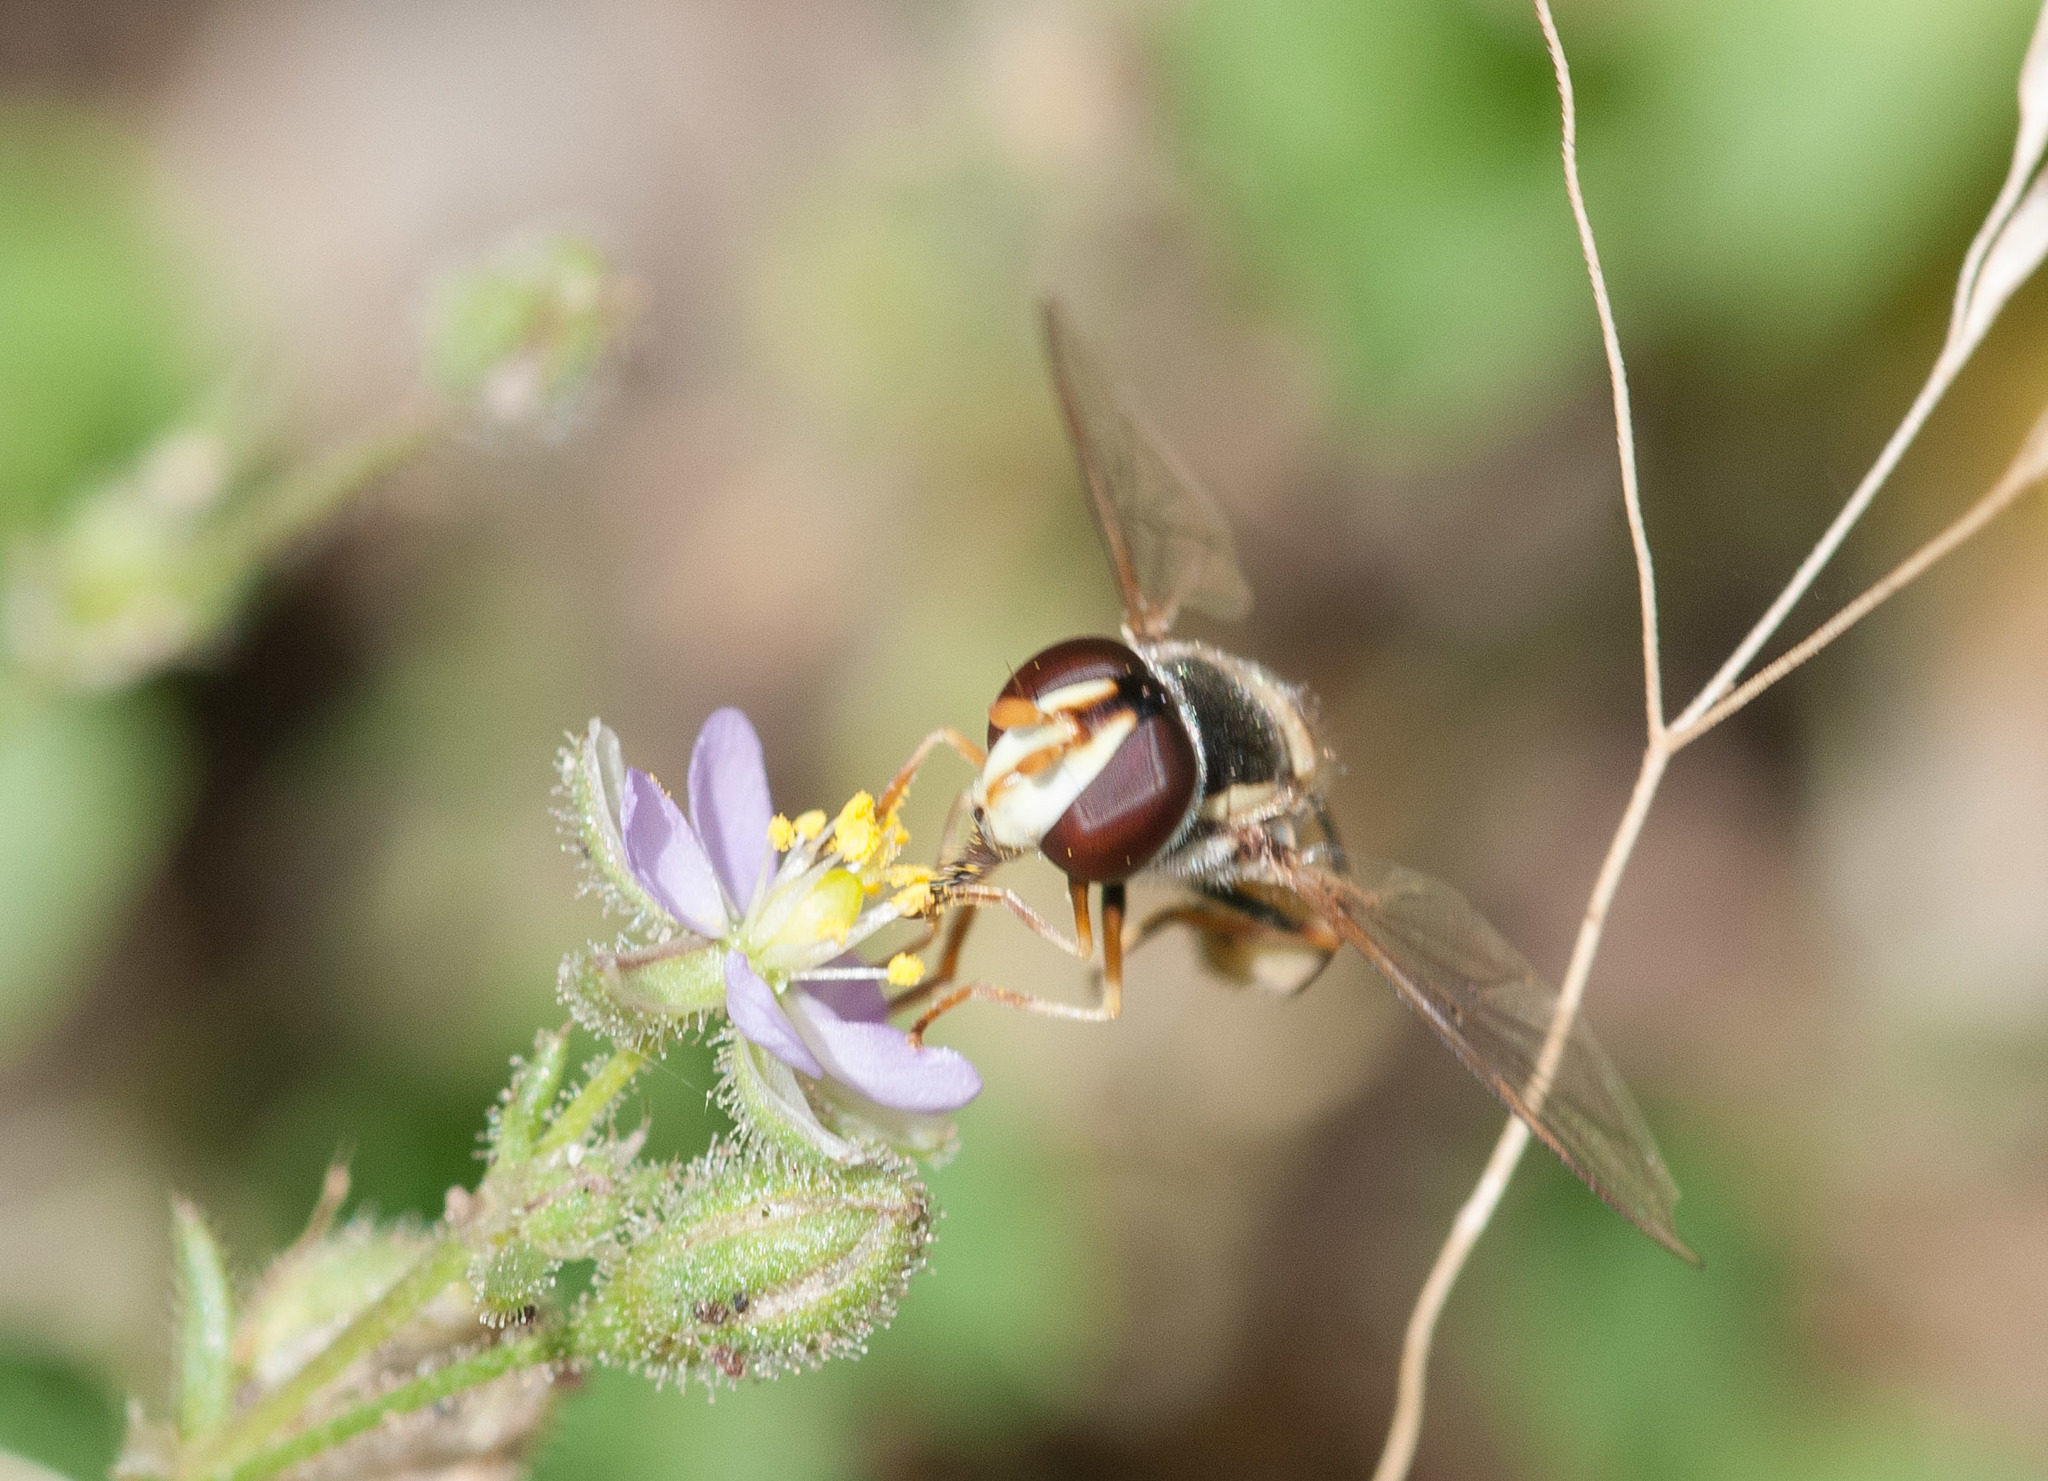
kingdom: Animalia
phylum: Arthropoda
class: Insecta
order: Diptera
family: Syrphidae
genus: Simosyrphus
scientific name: Simosyrphus grandicornis
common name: Hoverfly
